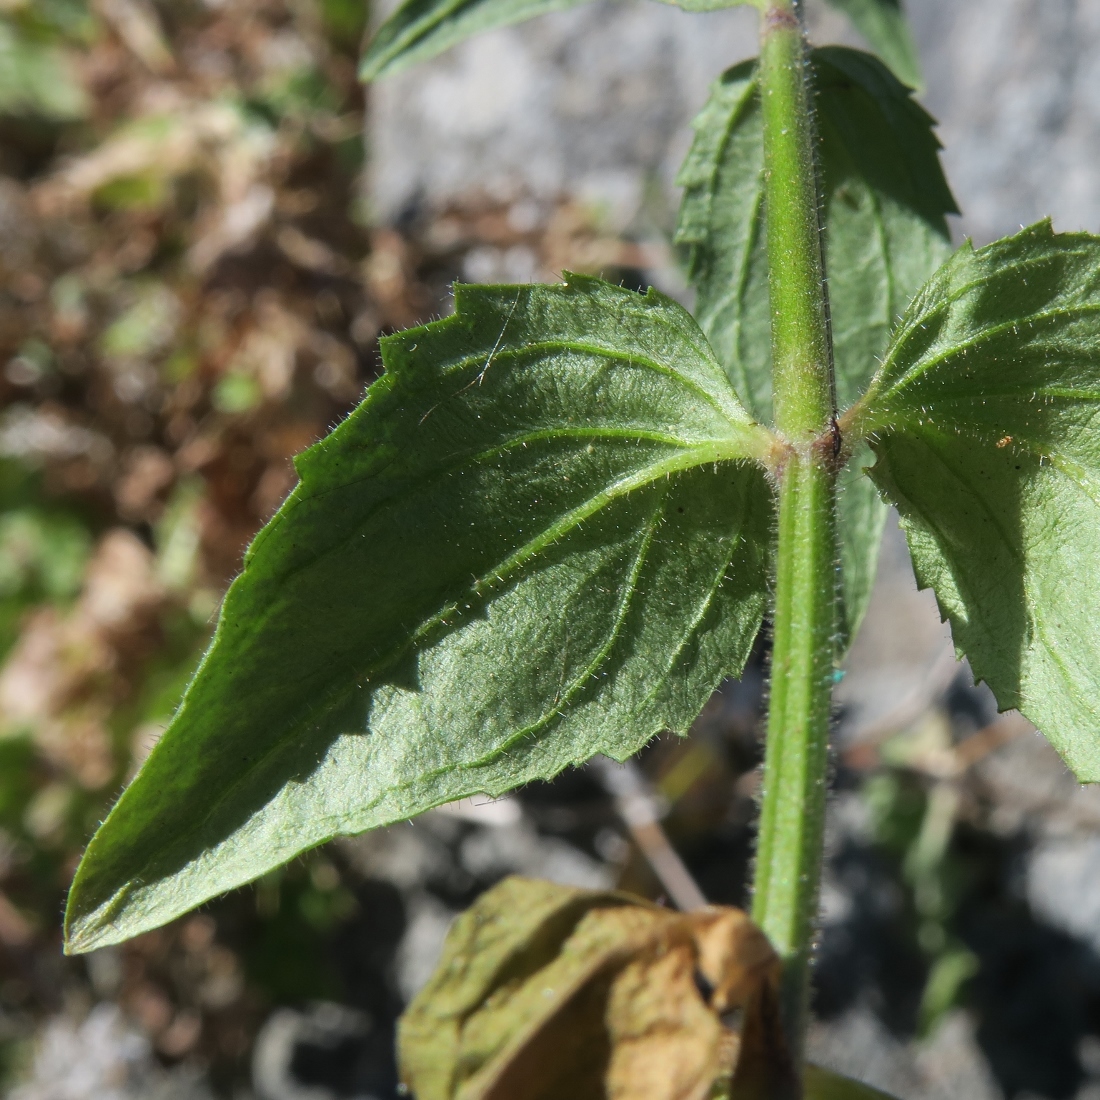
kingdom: Plantae
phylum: Tracheophyta
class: Magnoliopsida
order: Lamiales
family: Scrophulariaceae
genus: Nemesia
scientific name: Nemesia lanceolata
